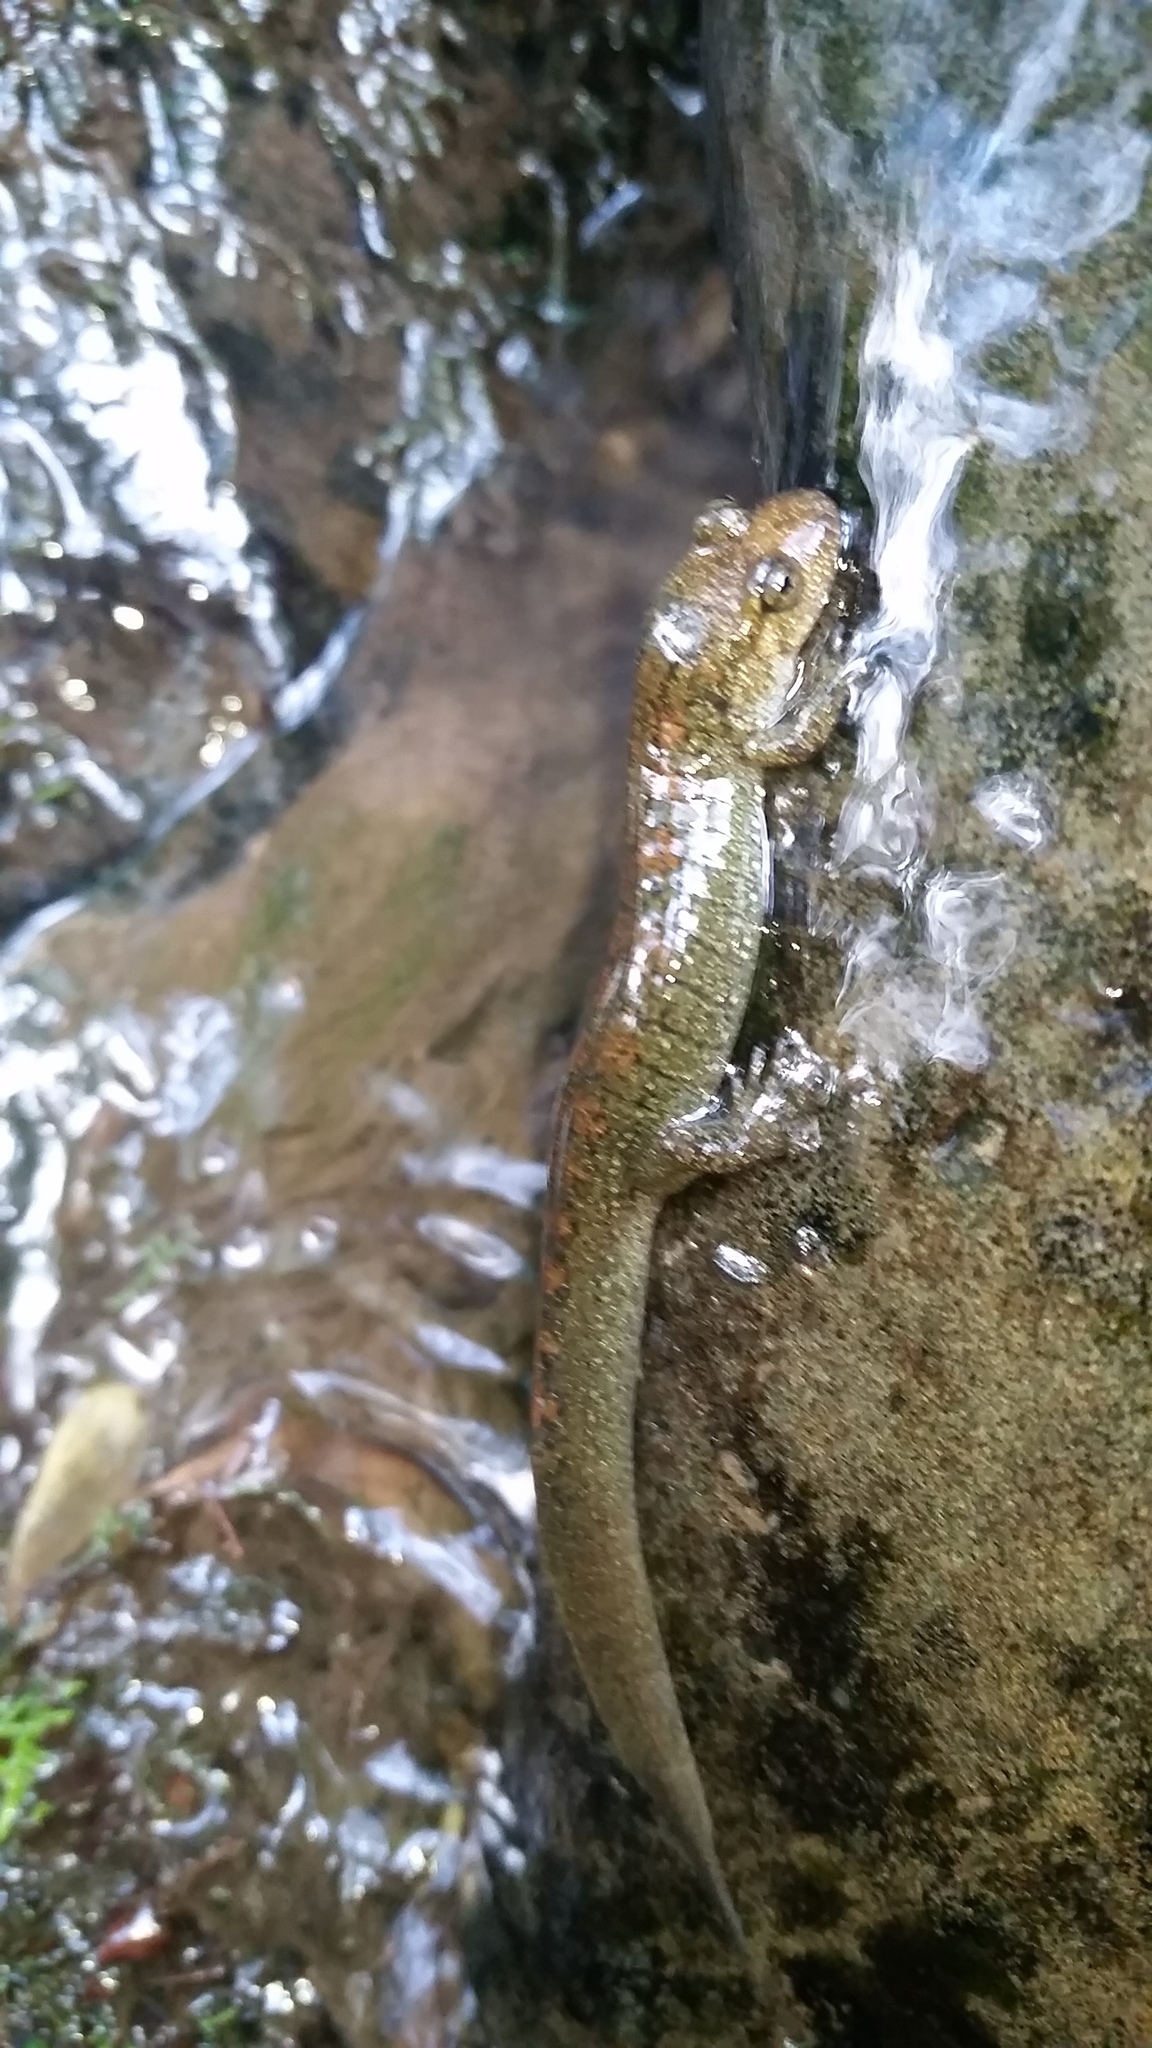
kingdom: Animalia
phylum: Chordata
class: Amphibia
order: Caudata
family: Plethodontidae
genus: Desmognathus
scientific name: Desmognathus
